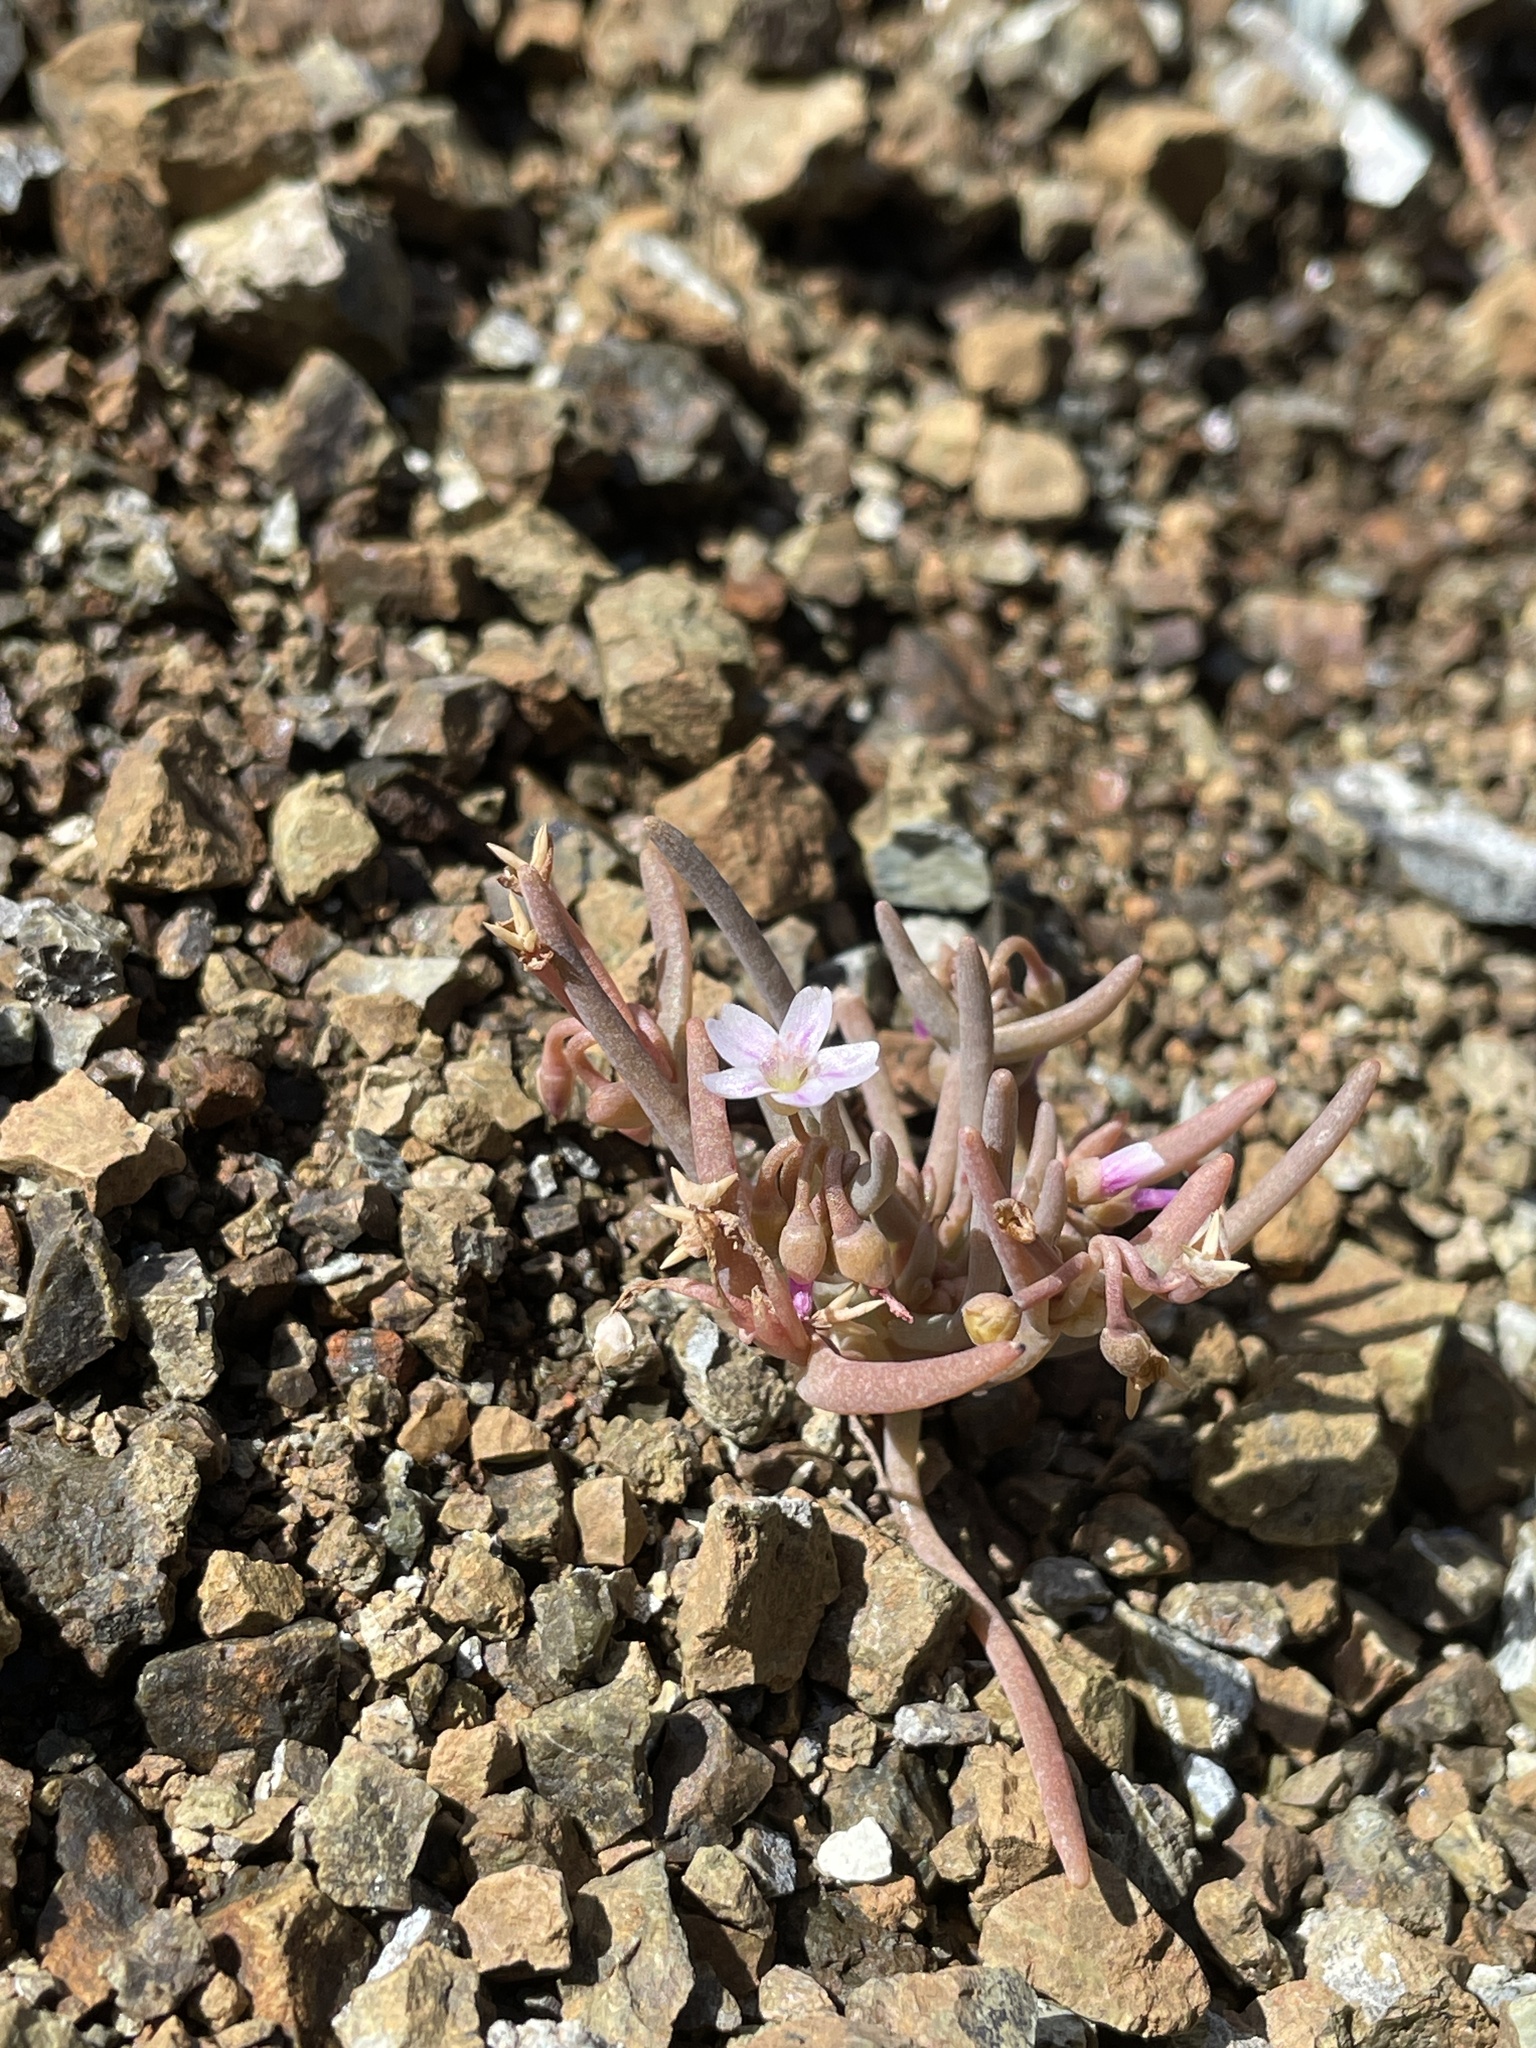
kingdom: Plantae
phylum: Tracheophyta
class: Magnoliopsida
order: Caryophyllales
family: Montiaceae
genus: Claytonia
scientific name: Claytonia exigua
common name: Pale spring beauty
